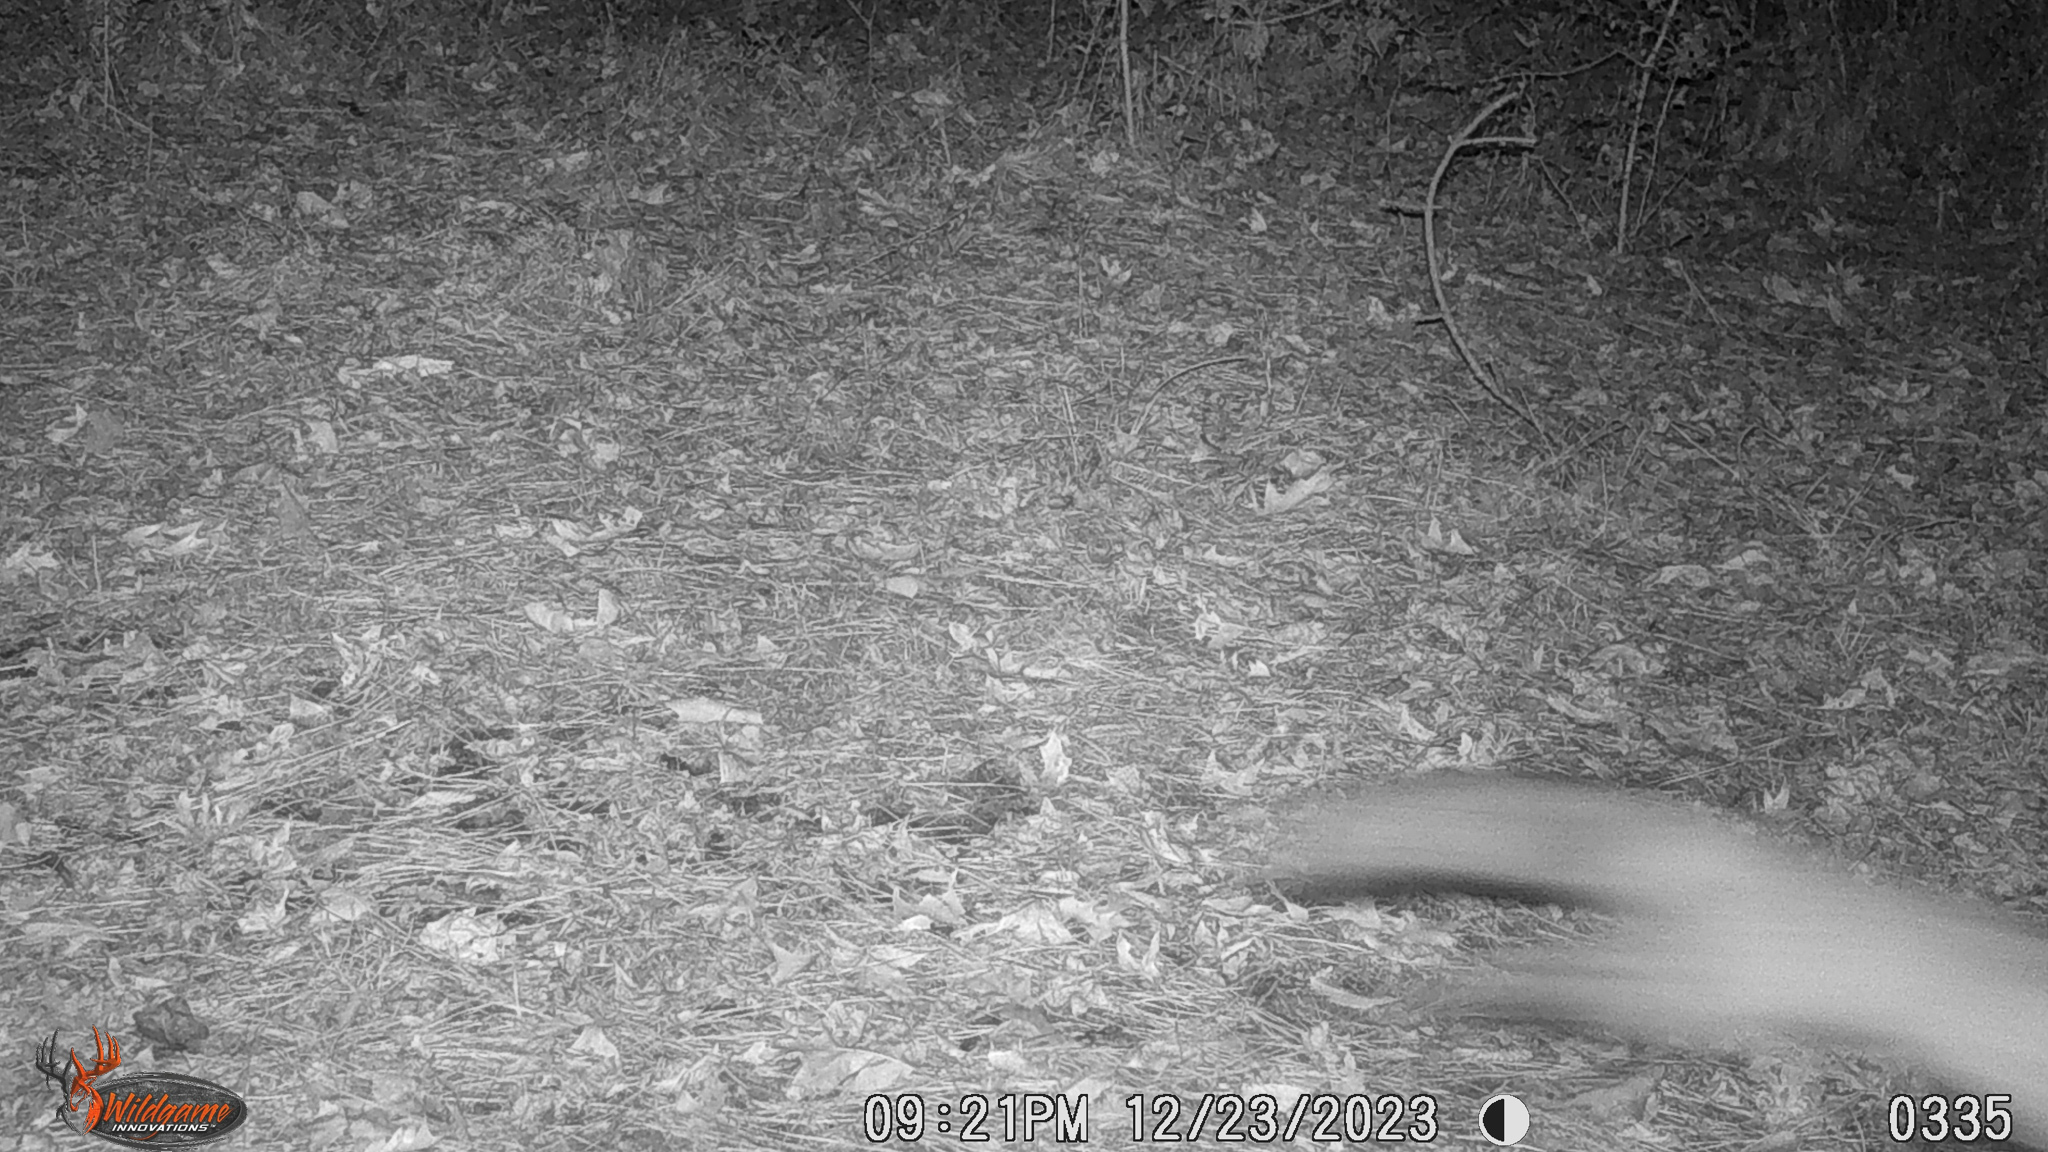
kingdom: Animalia
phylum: Chordata
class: Mammalia
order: Carnivora
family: Canidae
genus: Urocyon
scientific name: Urocyon cinereoargenteus
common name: Gray fox
